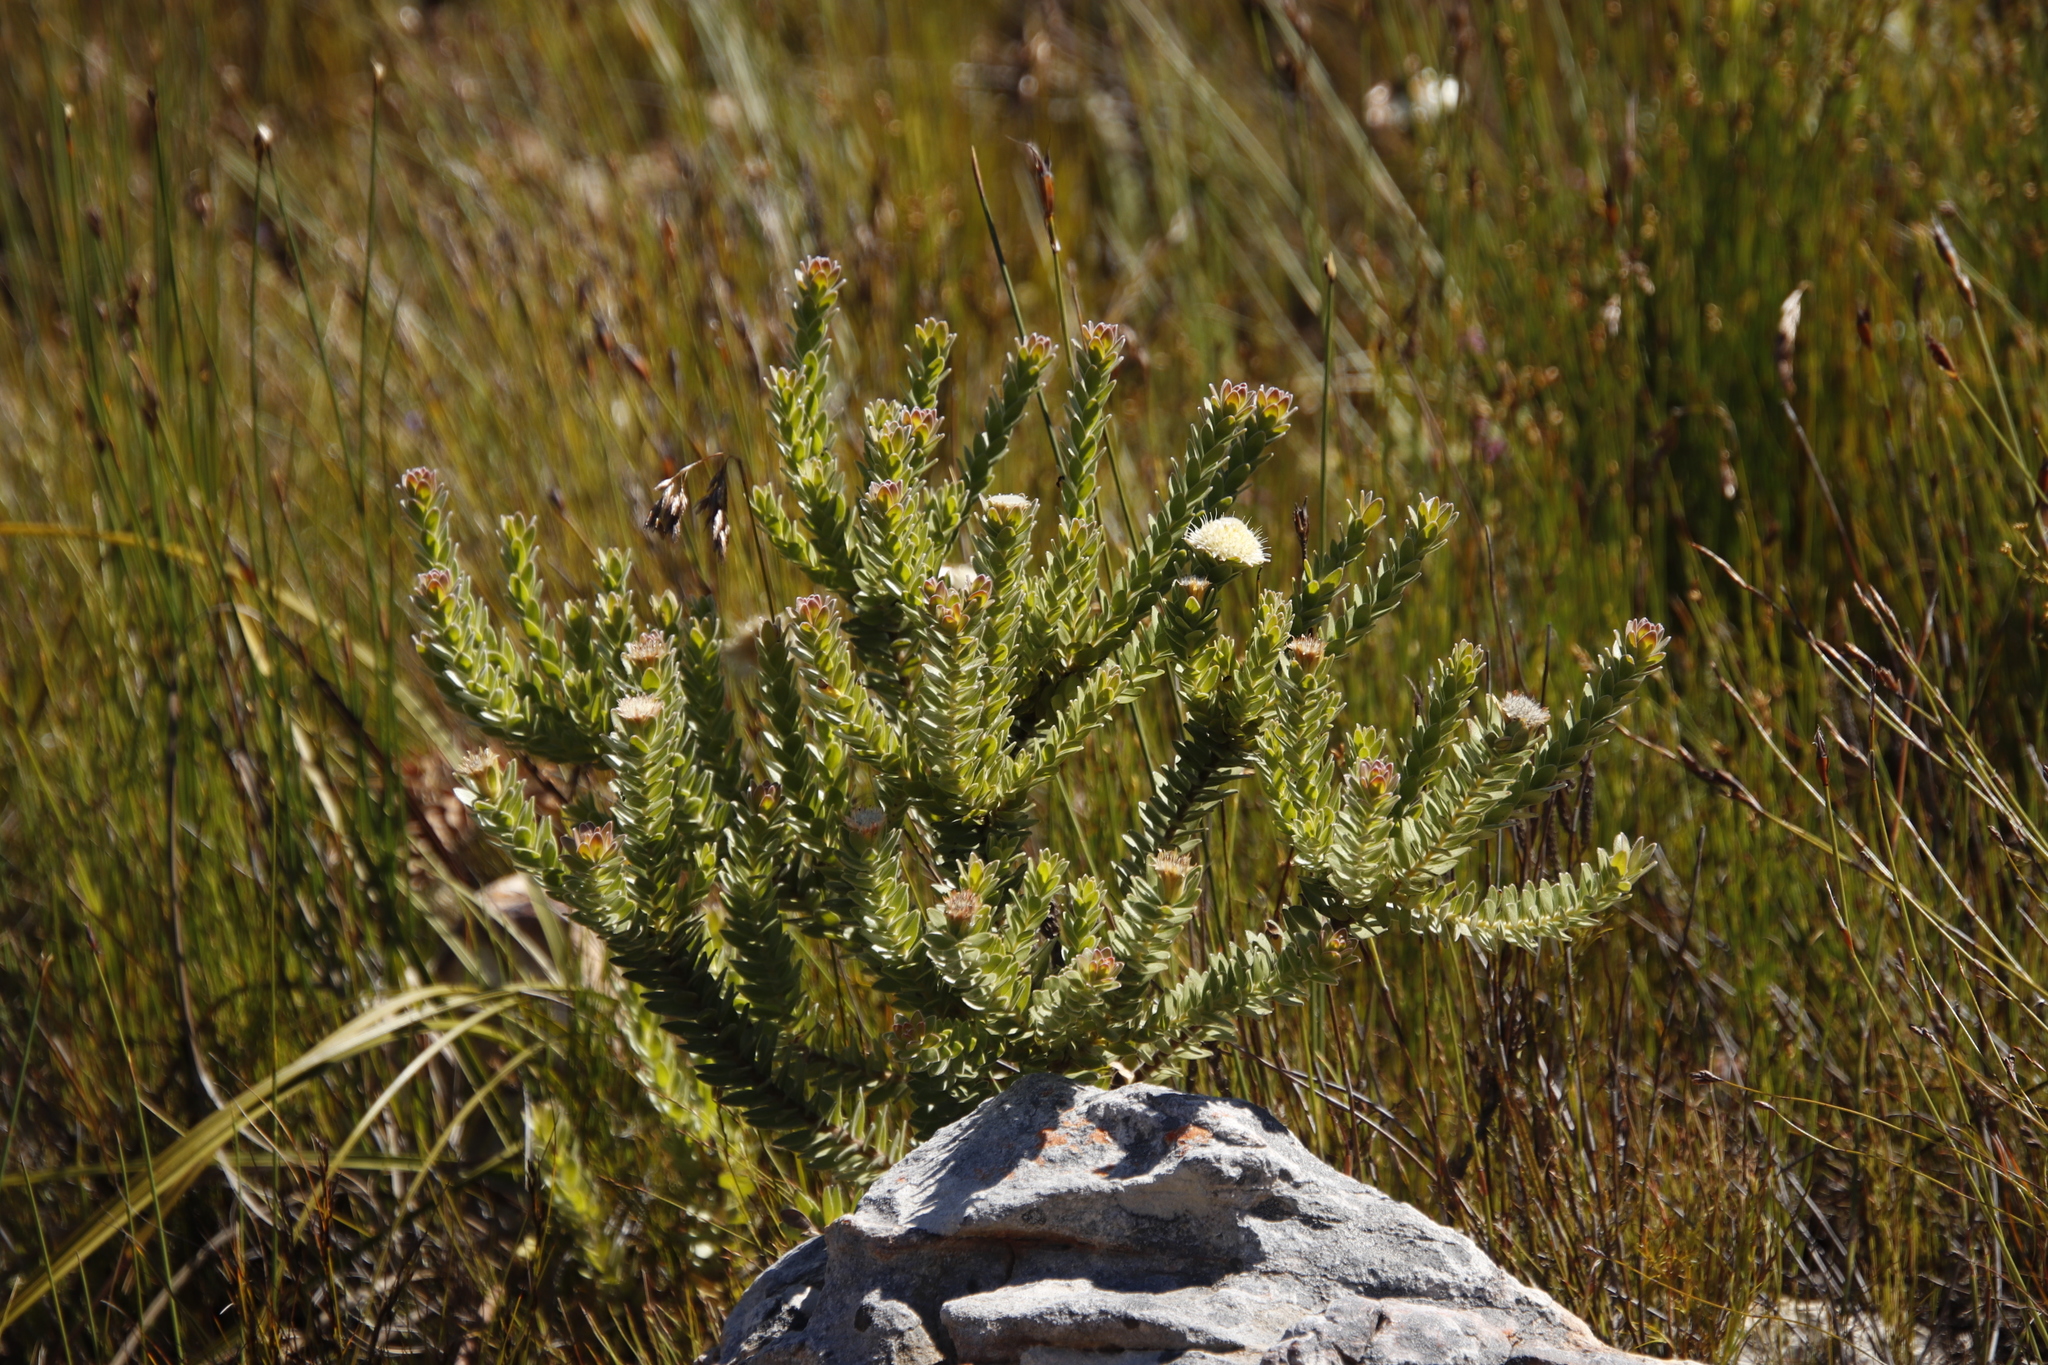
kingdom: Plantae
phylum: Tracheophyta
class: Magnoliopsida
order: Proteales
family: Proteaceae
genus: Diastella
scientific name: Diastella thymelaeoides
